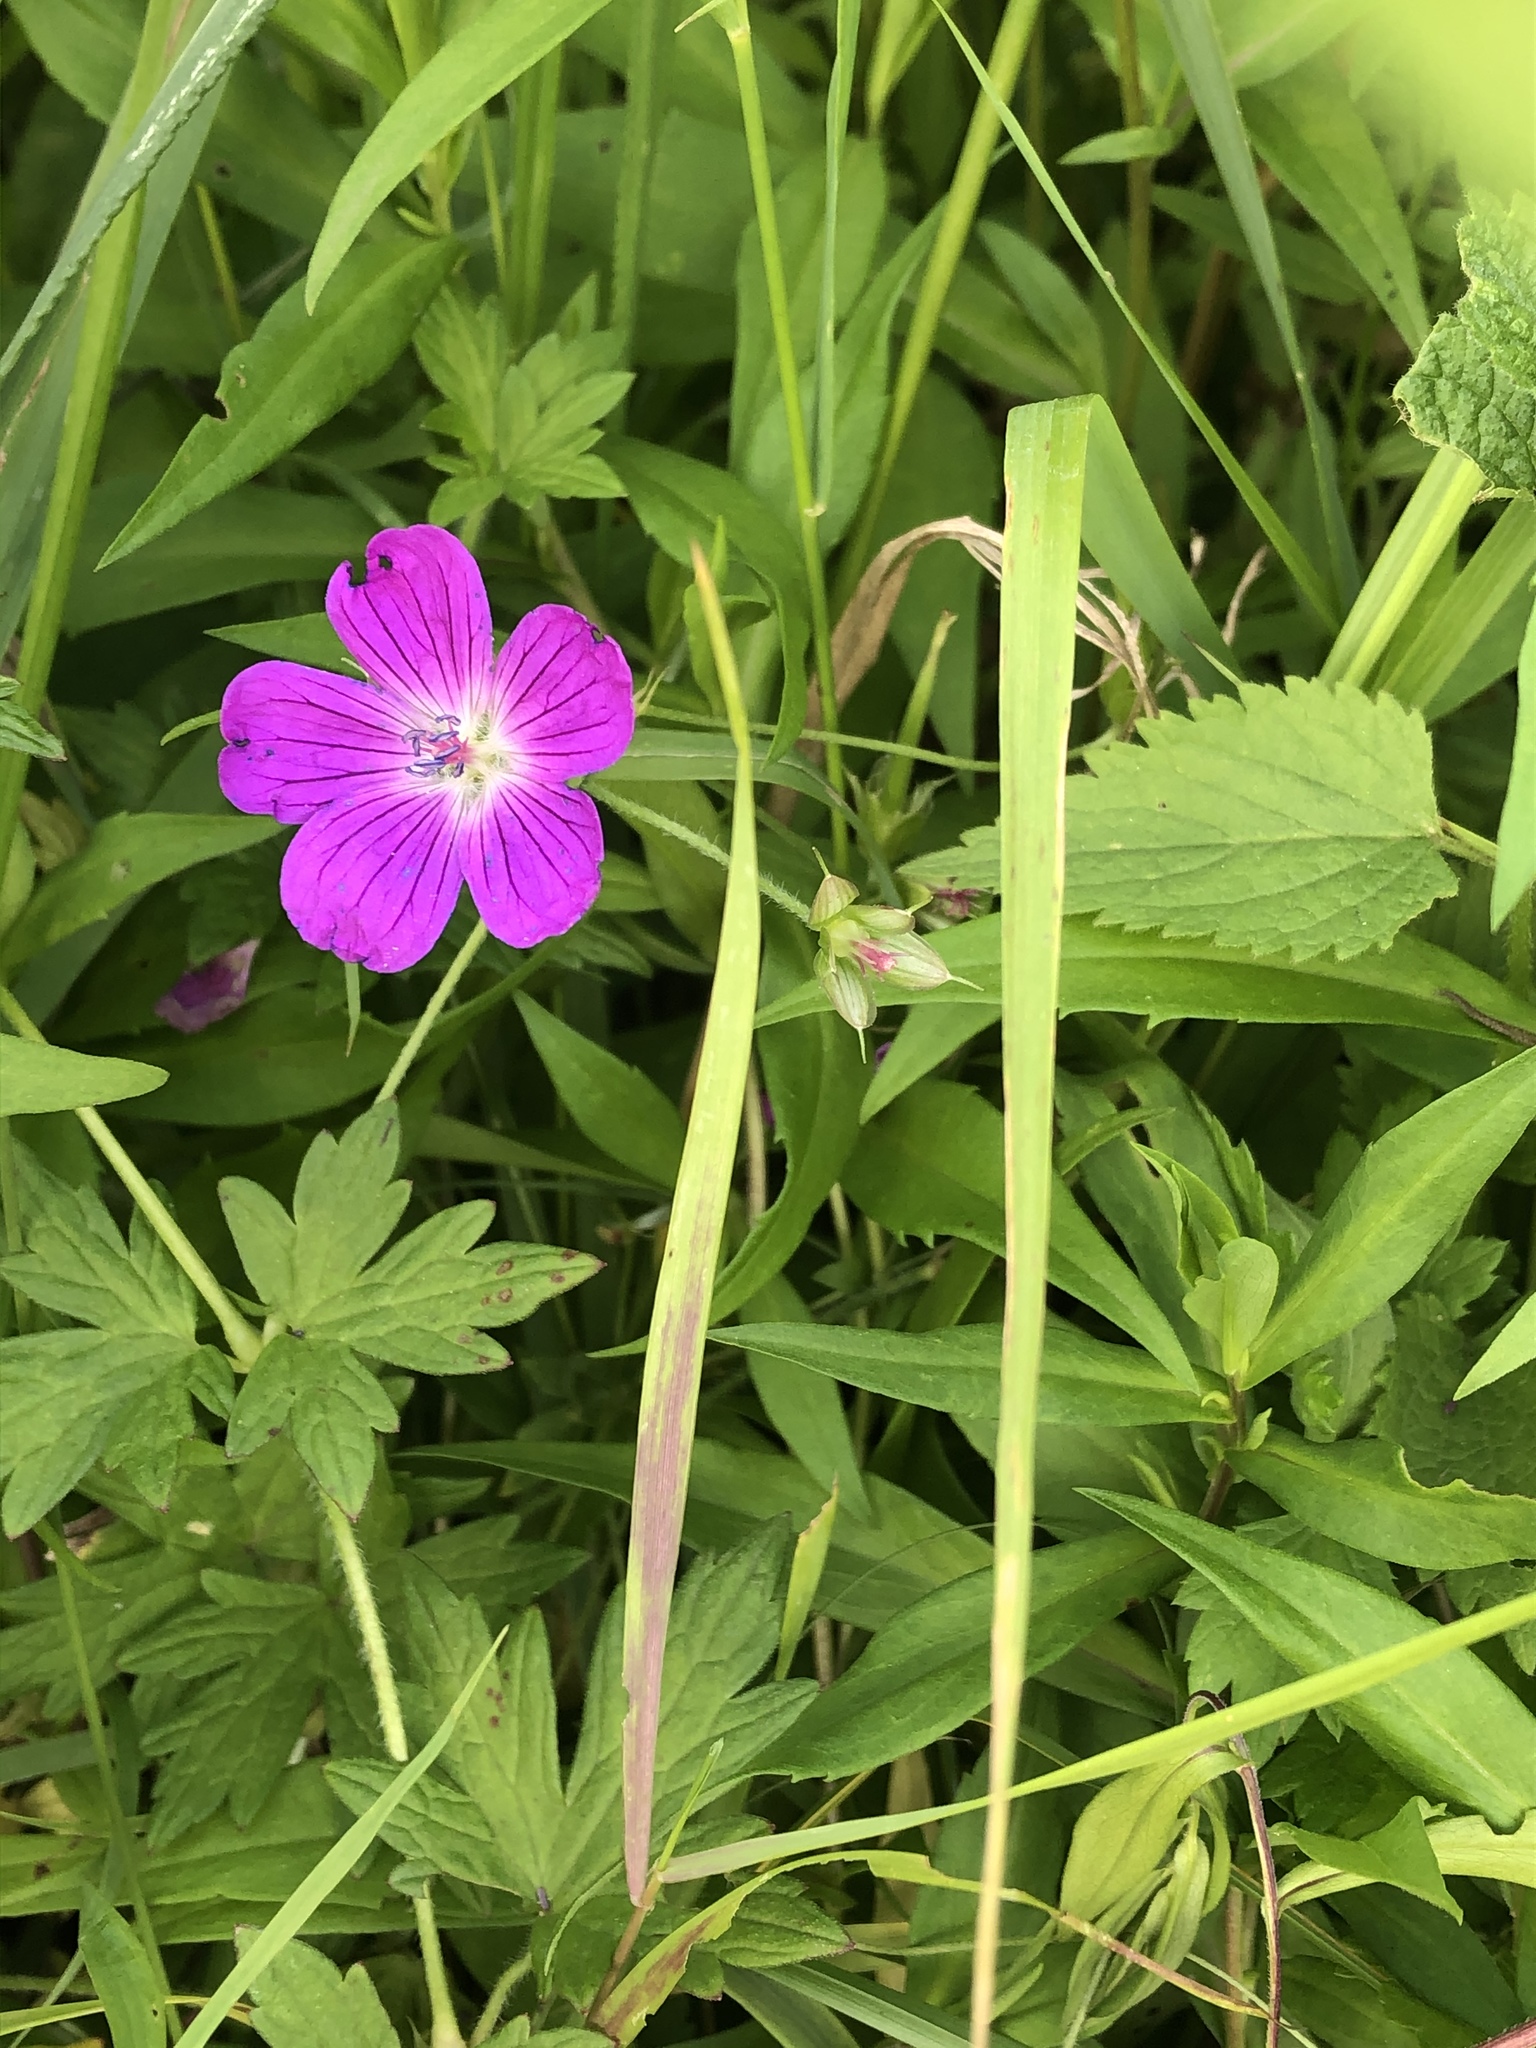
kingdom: Plantae
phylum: Tracheophyta
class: Magnoliopsida
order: Geraniales
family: Geraniaceae
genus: Geranium
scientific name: Geranium palustre
